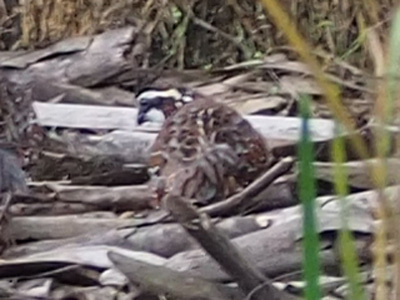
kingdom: Animalia
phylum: Chordata
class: Aves
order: Galliformes
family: Odontophoridae
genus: Colinus
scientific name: Colinus virginianus
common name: Northern bobwhite
